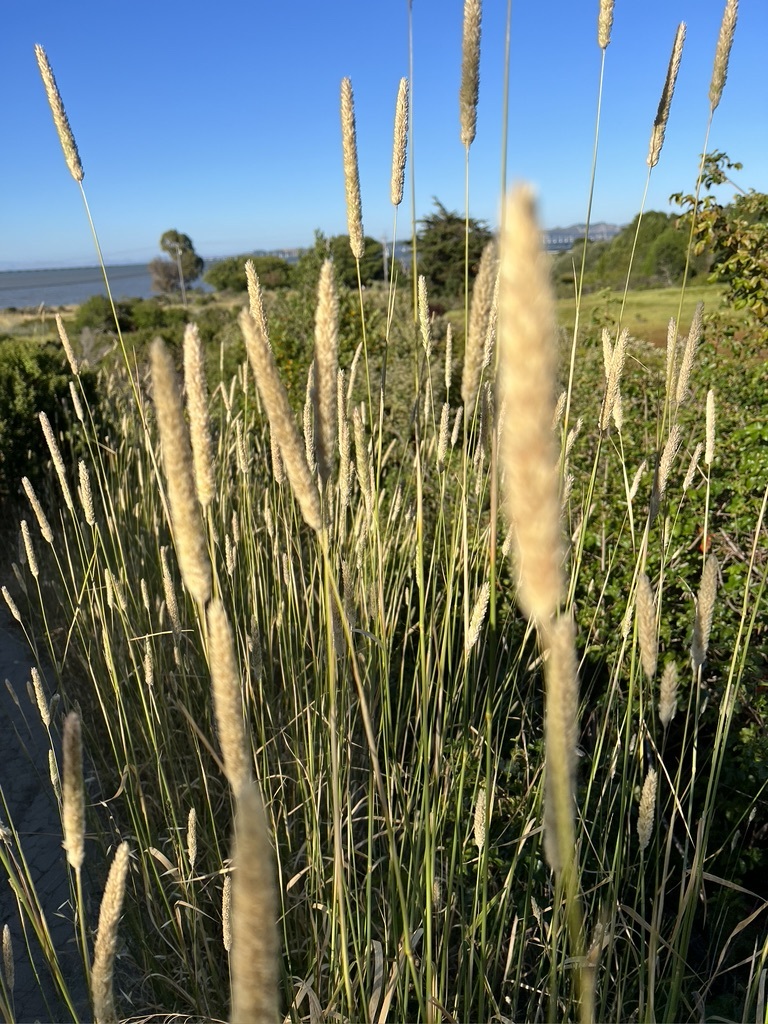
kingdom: Plantae
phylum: Tracheophyta
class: Liliopsida
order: Poales
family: Poaceae
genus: Phalaris
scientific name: Phalaris aquatica
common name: Bulbous canary-grass
